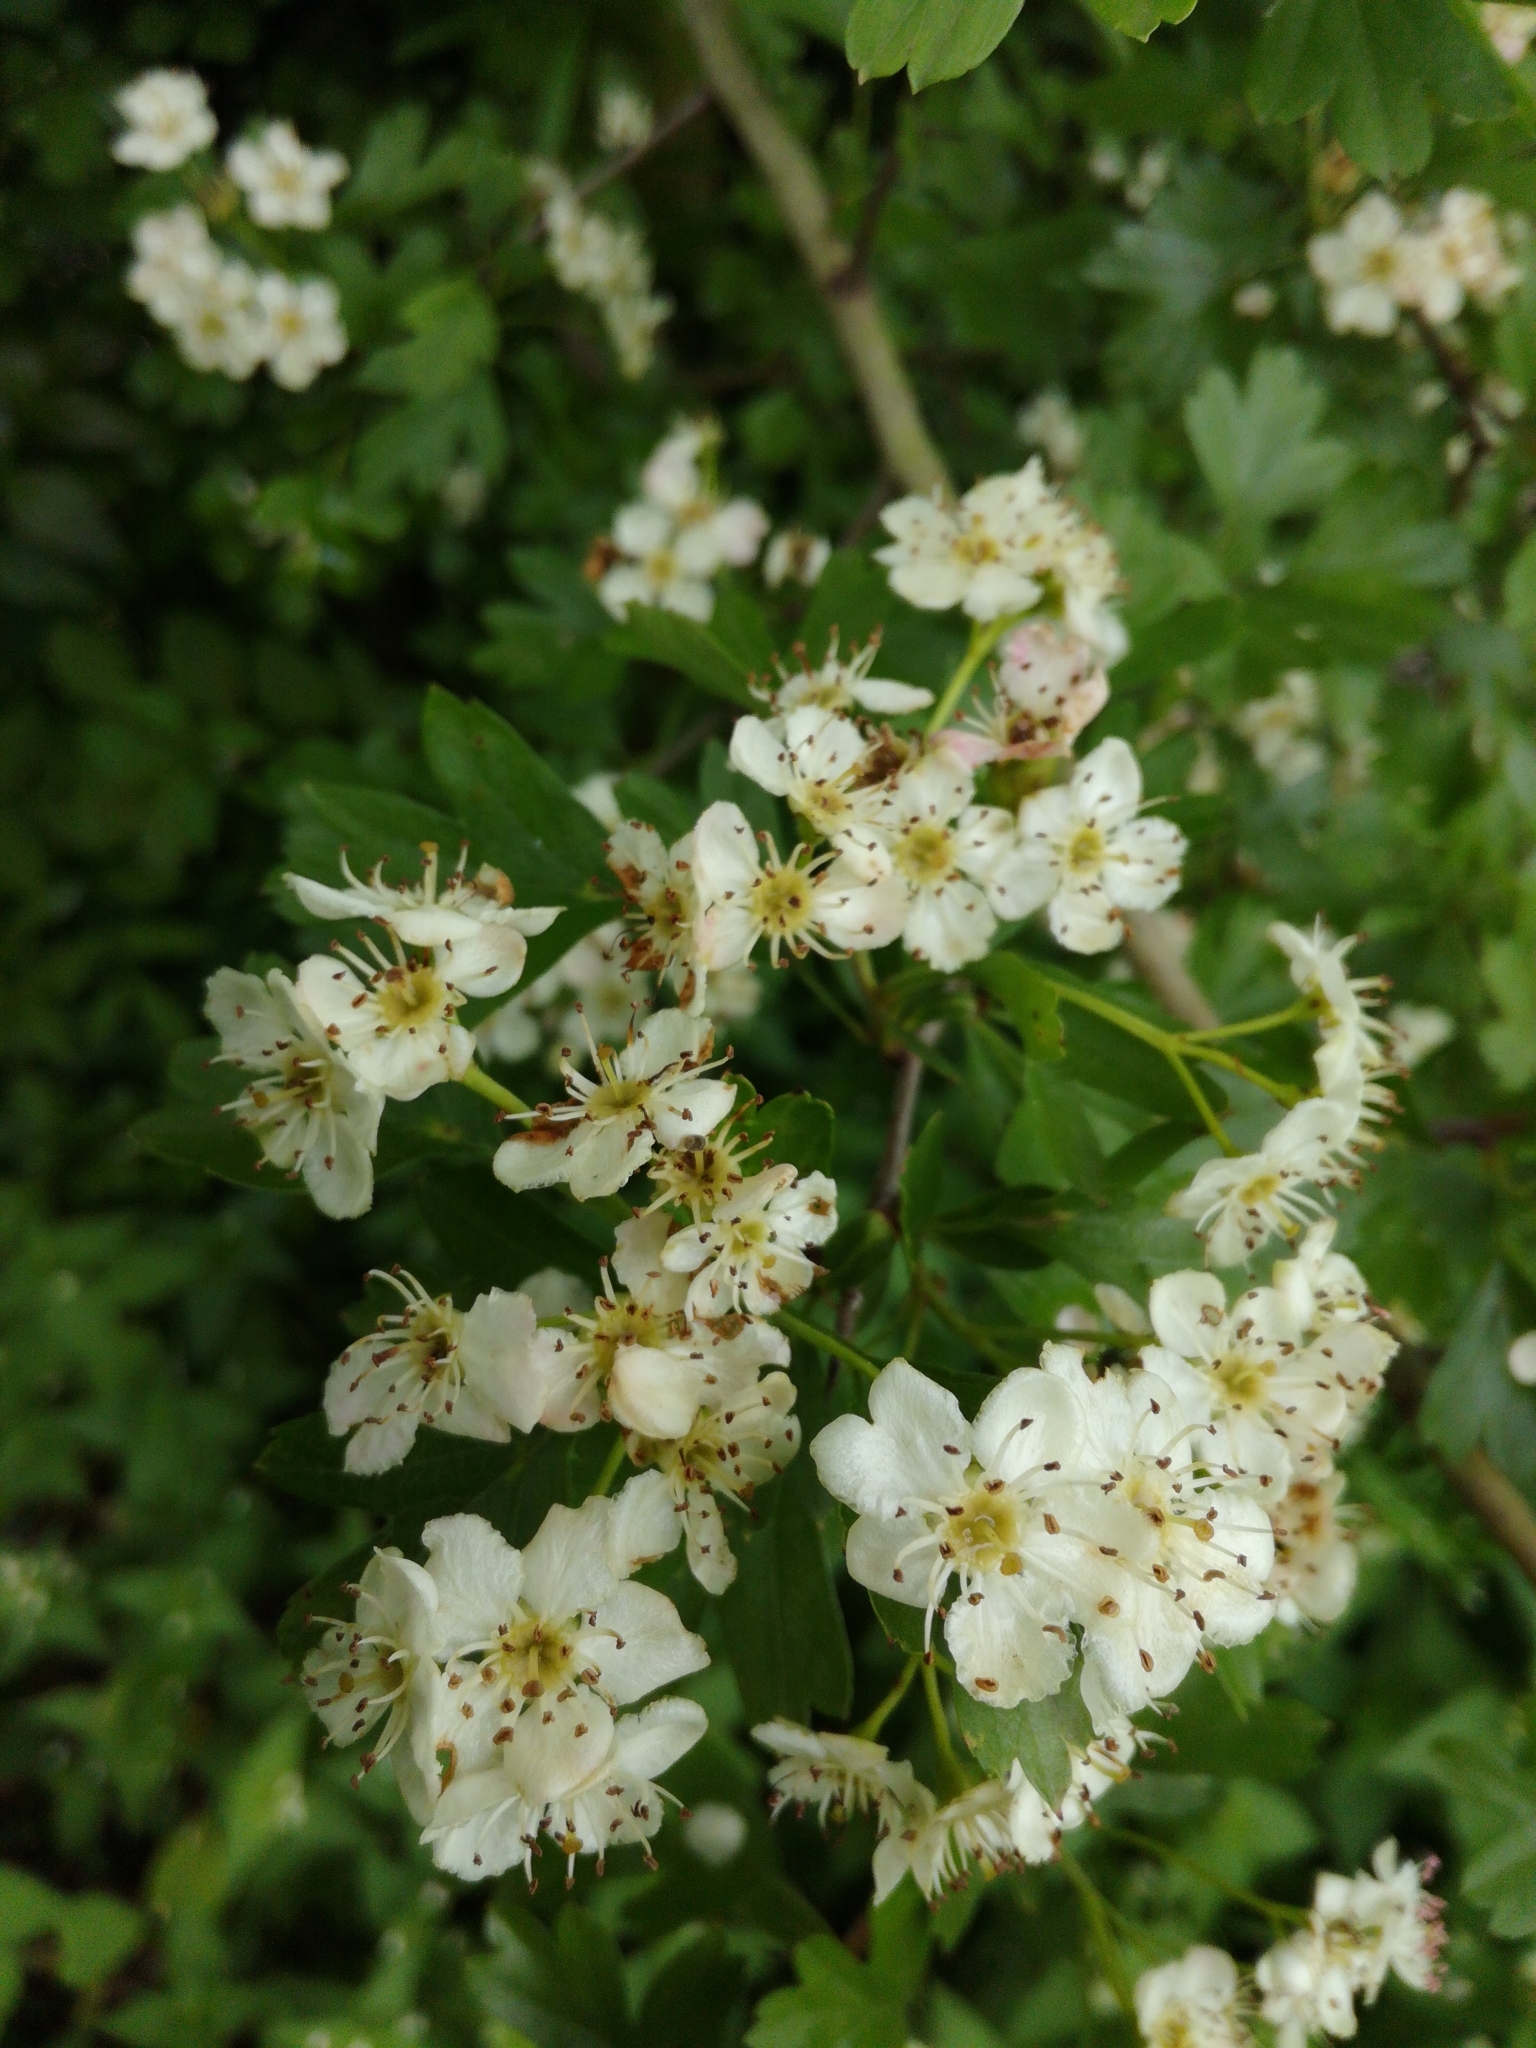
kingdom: Plantae
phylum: Tracheophyta
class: Magnoliopsida
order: Rosales
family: Rosaceae
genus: Crataegus
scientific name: Crataegus monogyna
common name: Hawthorn
